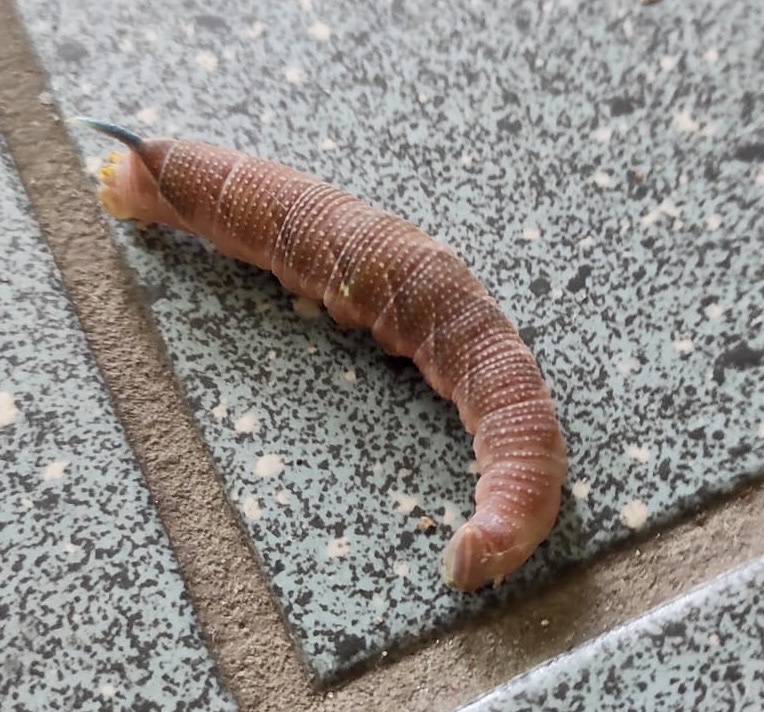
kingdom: Animalia
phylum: Arthropoda
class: Insecta
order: Lepidoptera
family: Sphingidae
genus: Mimas
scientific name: Mimas tiliae
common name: Lime hawk-moth
